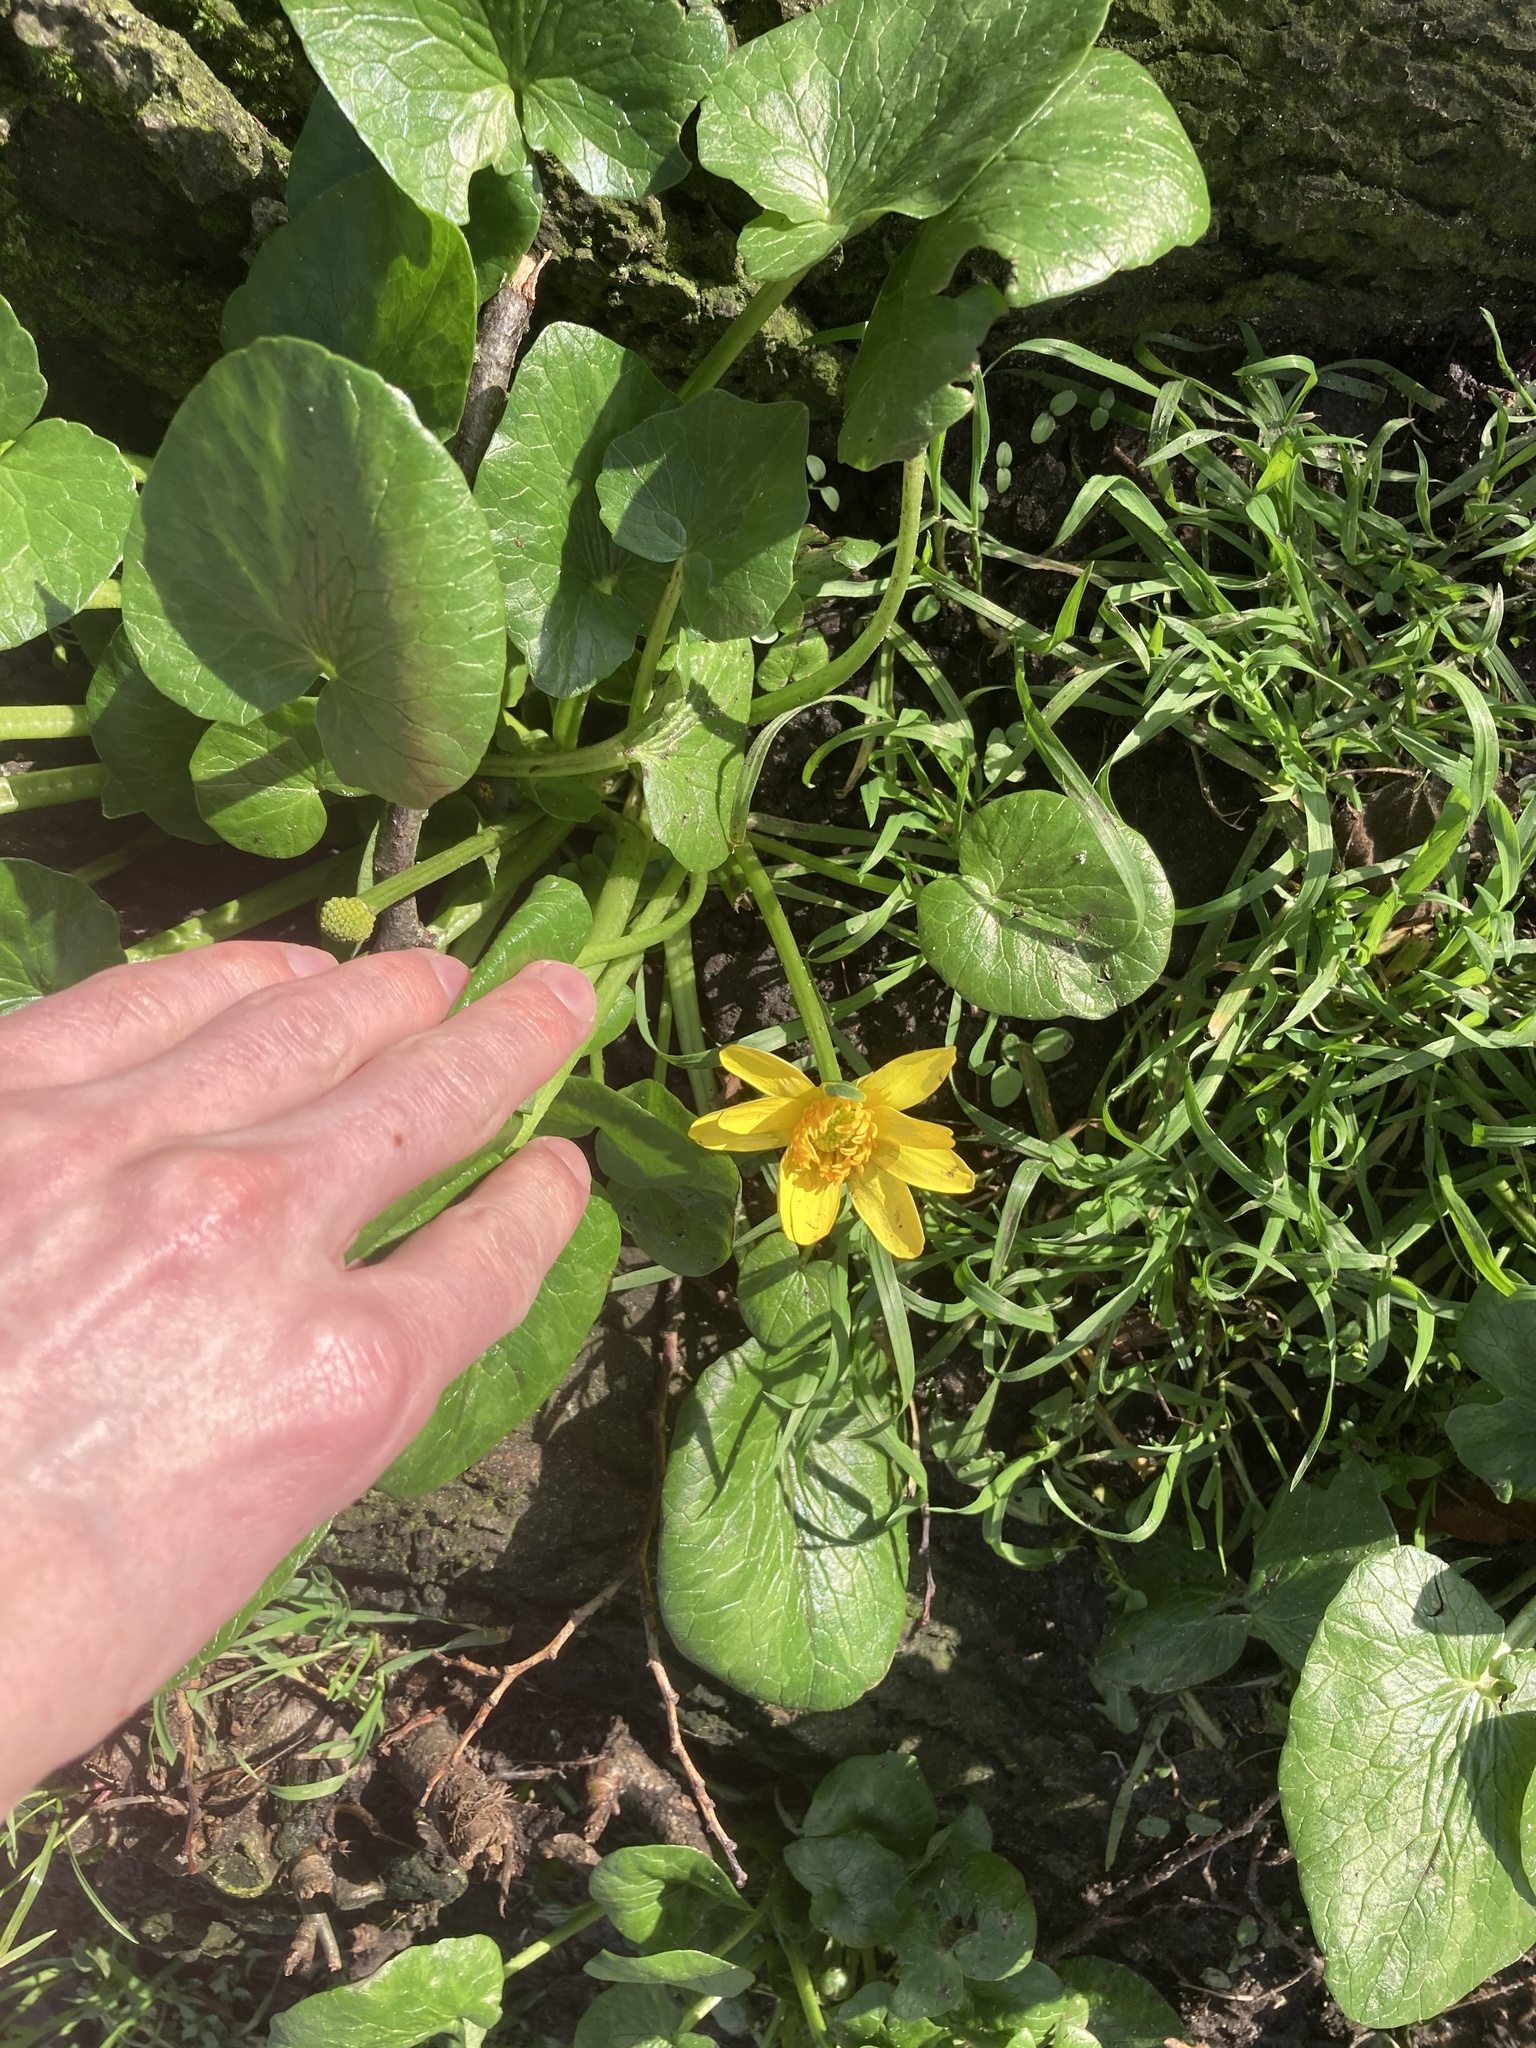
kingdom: Plantae
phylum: Tracheophyta
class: Magnoliopsida
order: Ranunculales
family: Ranunculaceae
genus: Ficaria
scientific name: Ficaria verna
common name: Lesser celandine
